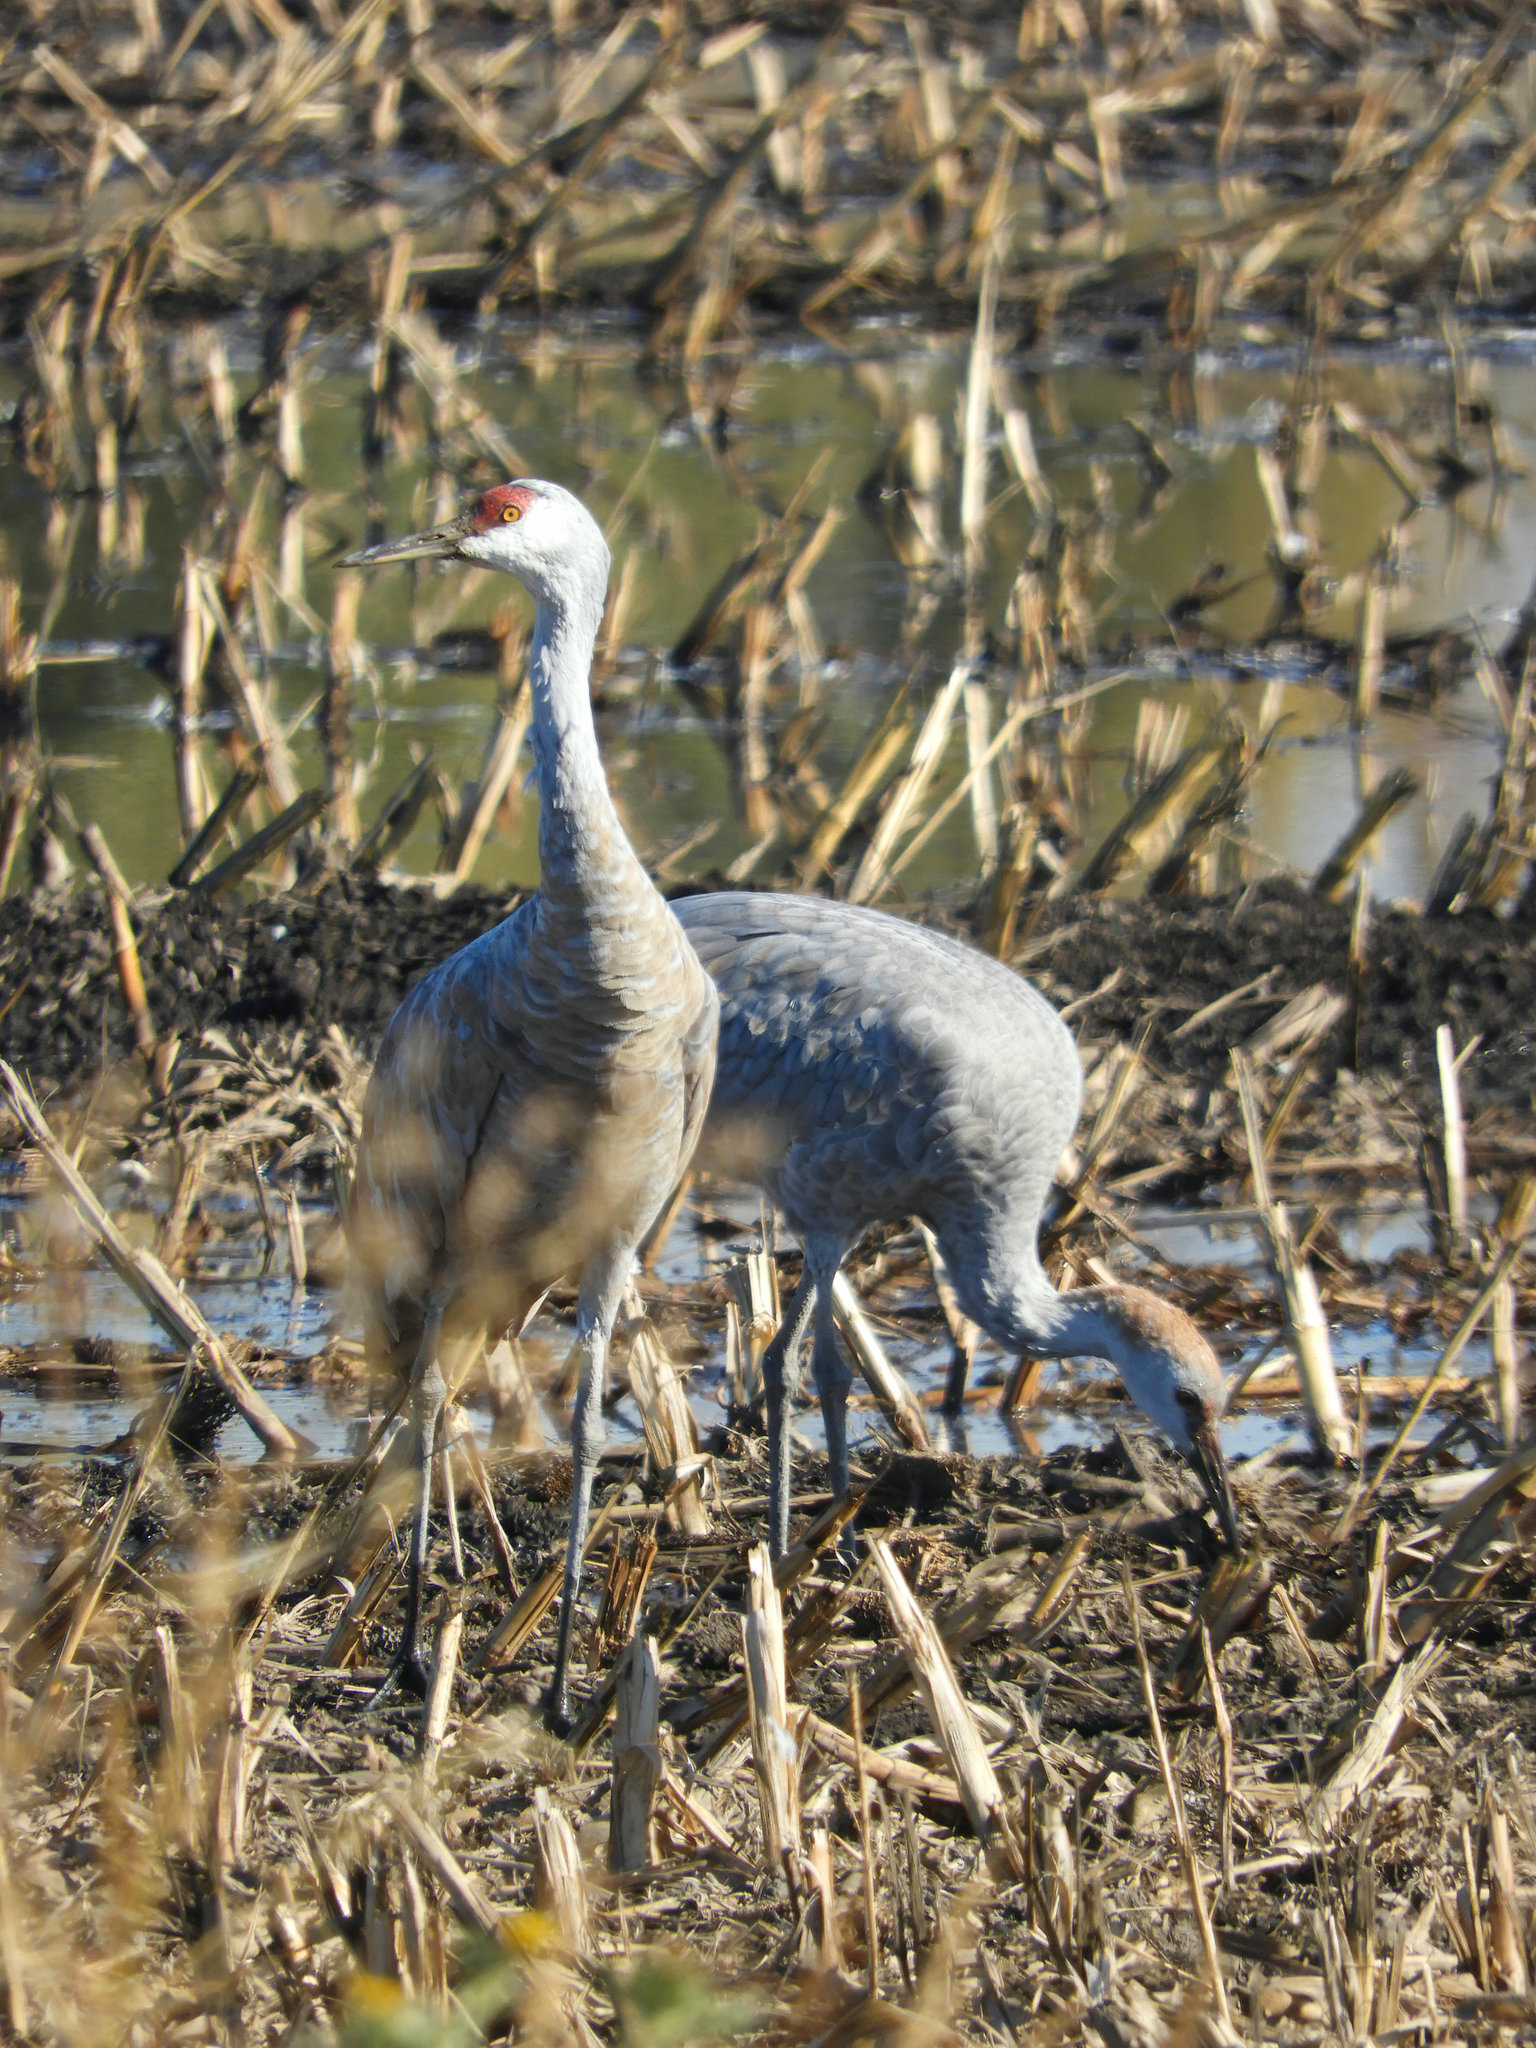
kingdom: Animalia
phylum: Chordata
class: Aves
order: Gruiformes
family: Gruidae
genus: Grus
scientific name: Grus canadensis
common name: Sandhill crane
